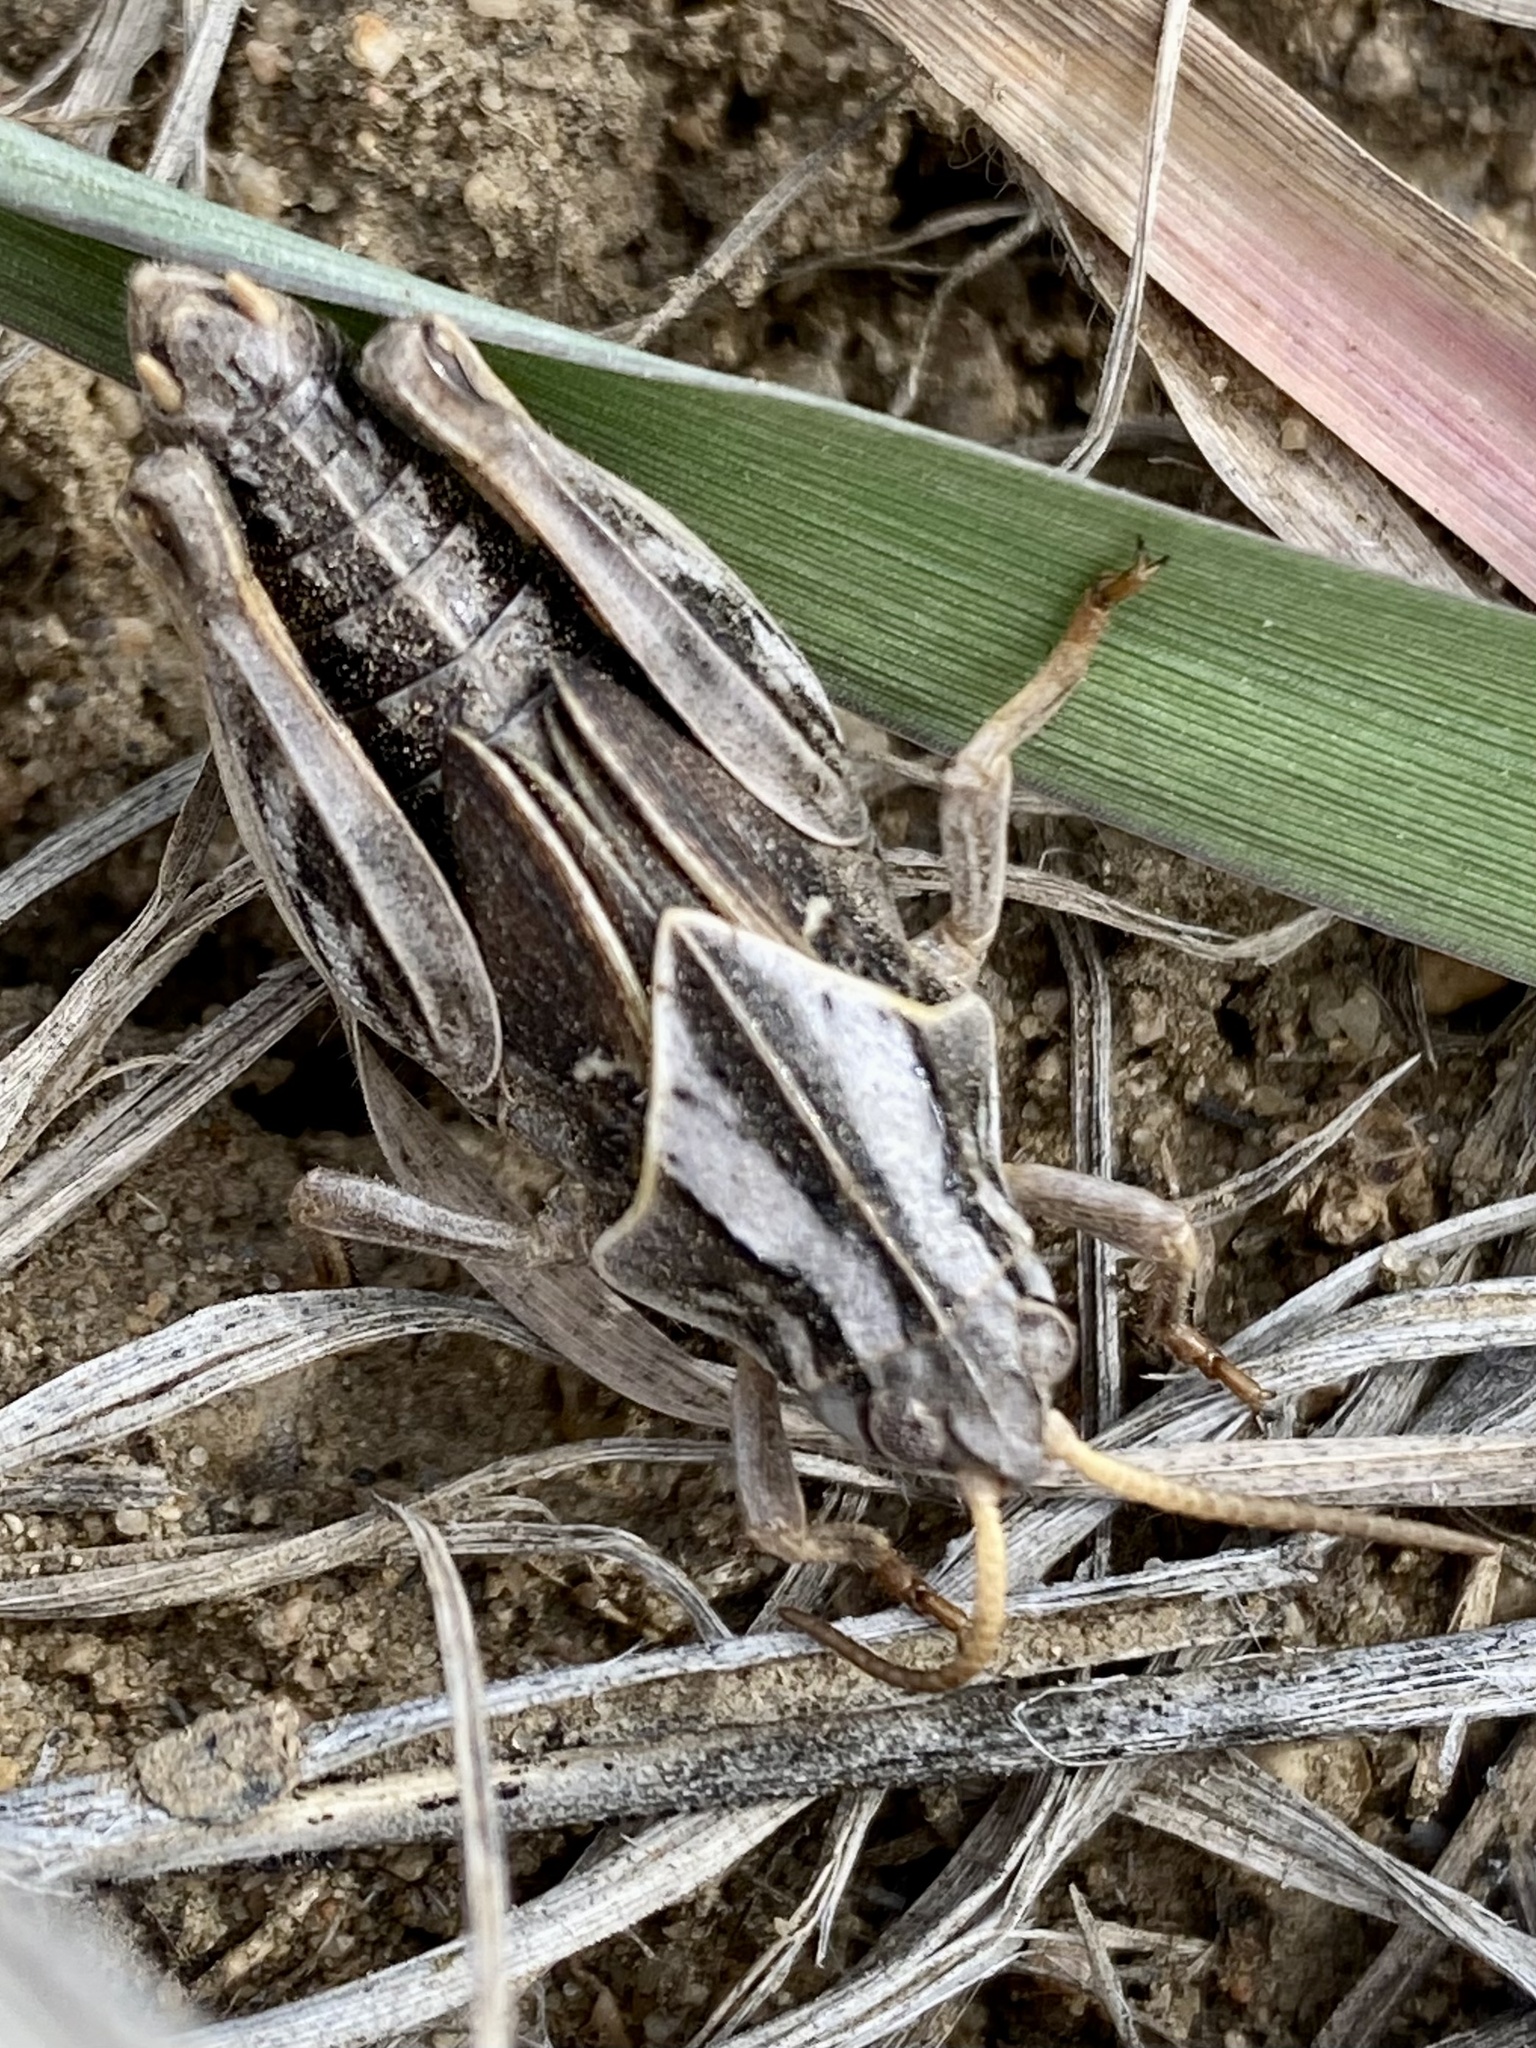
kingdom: Animalia
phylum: Arthropoda
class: Insecta
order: Orthoptera
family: Acrididae
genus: Pardalophora
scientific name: Pardalophora apiculata
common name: Coral-winged locust
